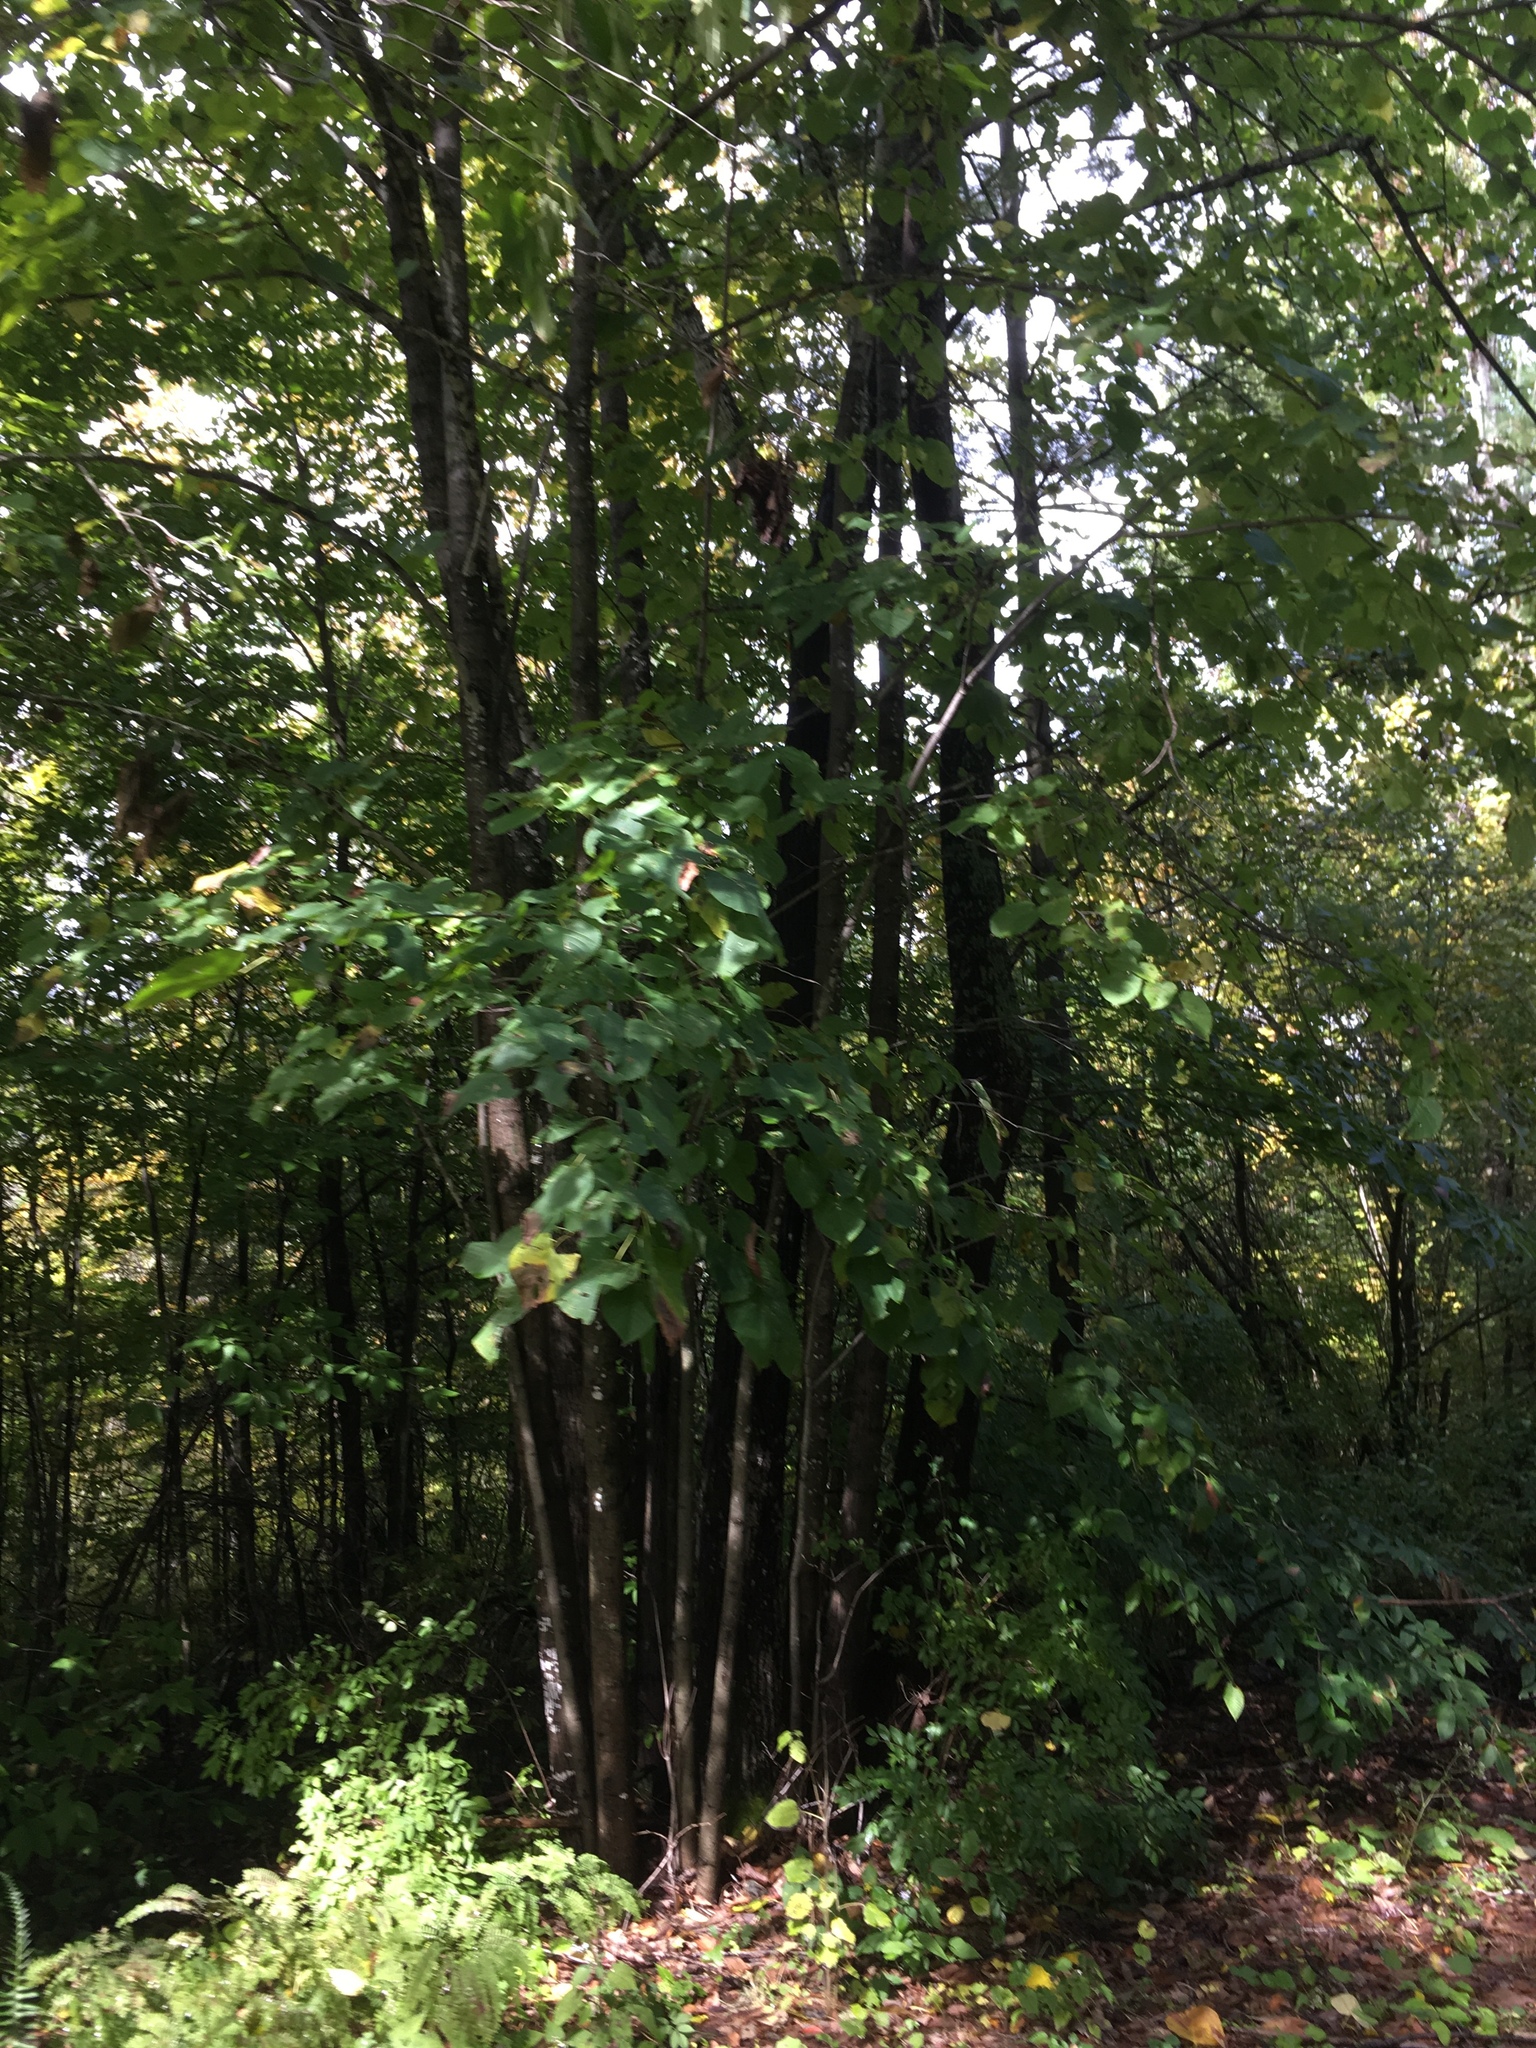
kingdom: Plantae
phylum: Tracheophyta
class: Magnoliopsida
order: Malvales
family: Malvaceae
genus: Tilia
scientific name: Tilia americana
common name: Basswood
